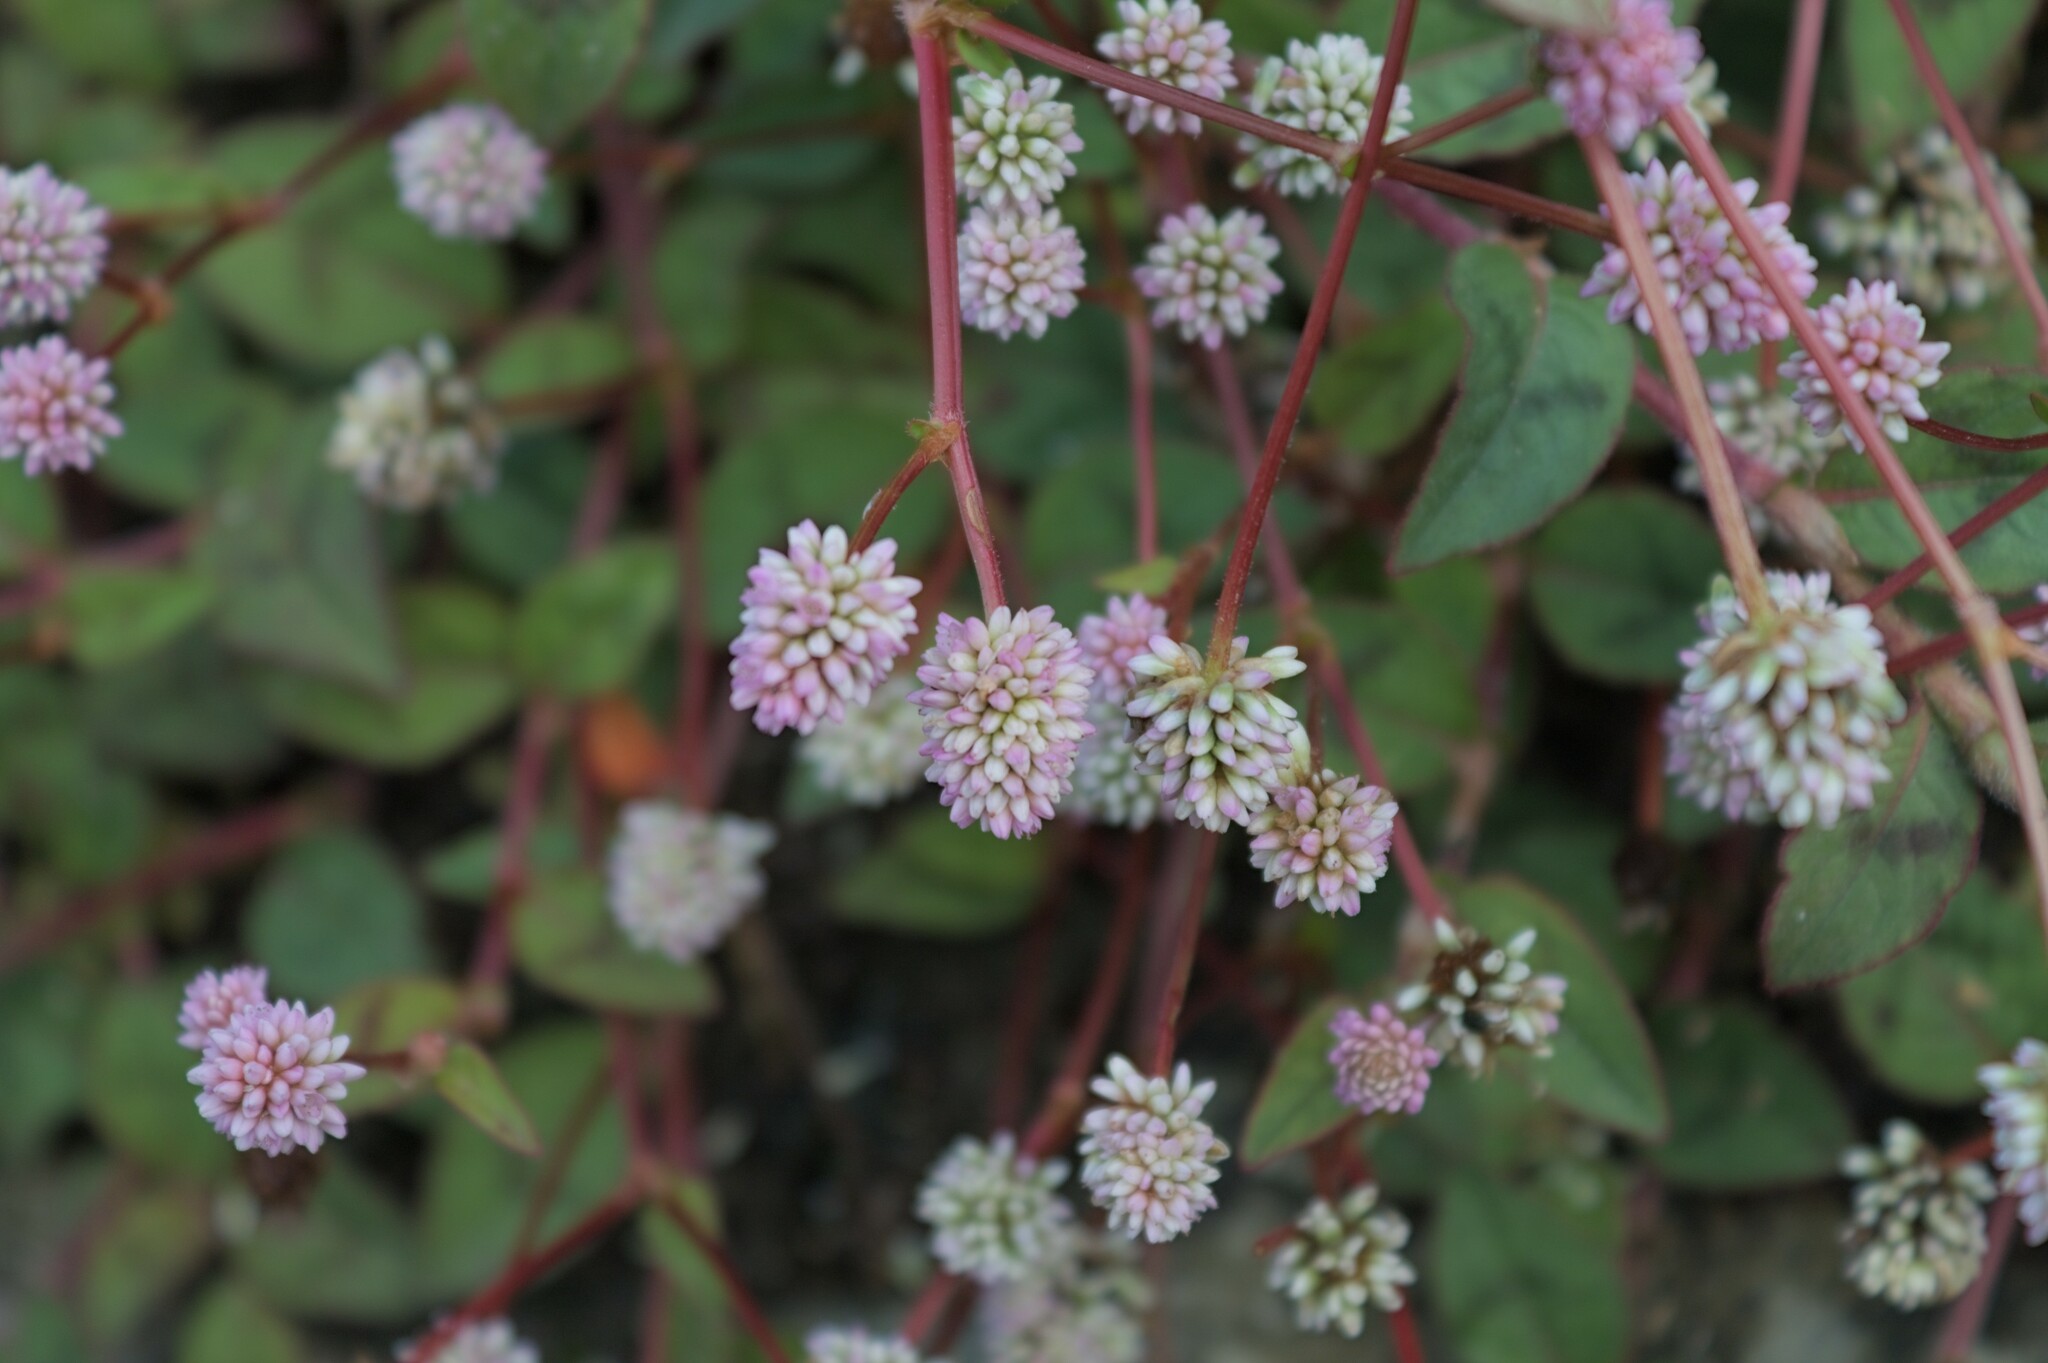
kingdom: Plantae
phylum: Tracheophyta
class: Magnoliopsida
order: Caryophyllales
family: Polygonaceae
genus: Persicaria
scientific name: Persicaria capitata
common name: Pinkhead smartweed
